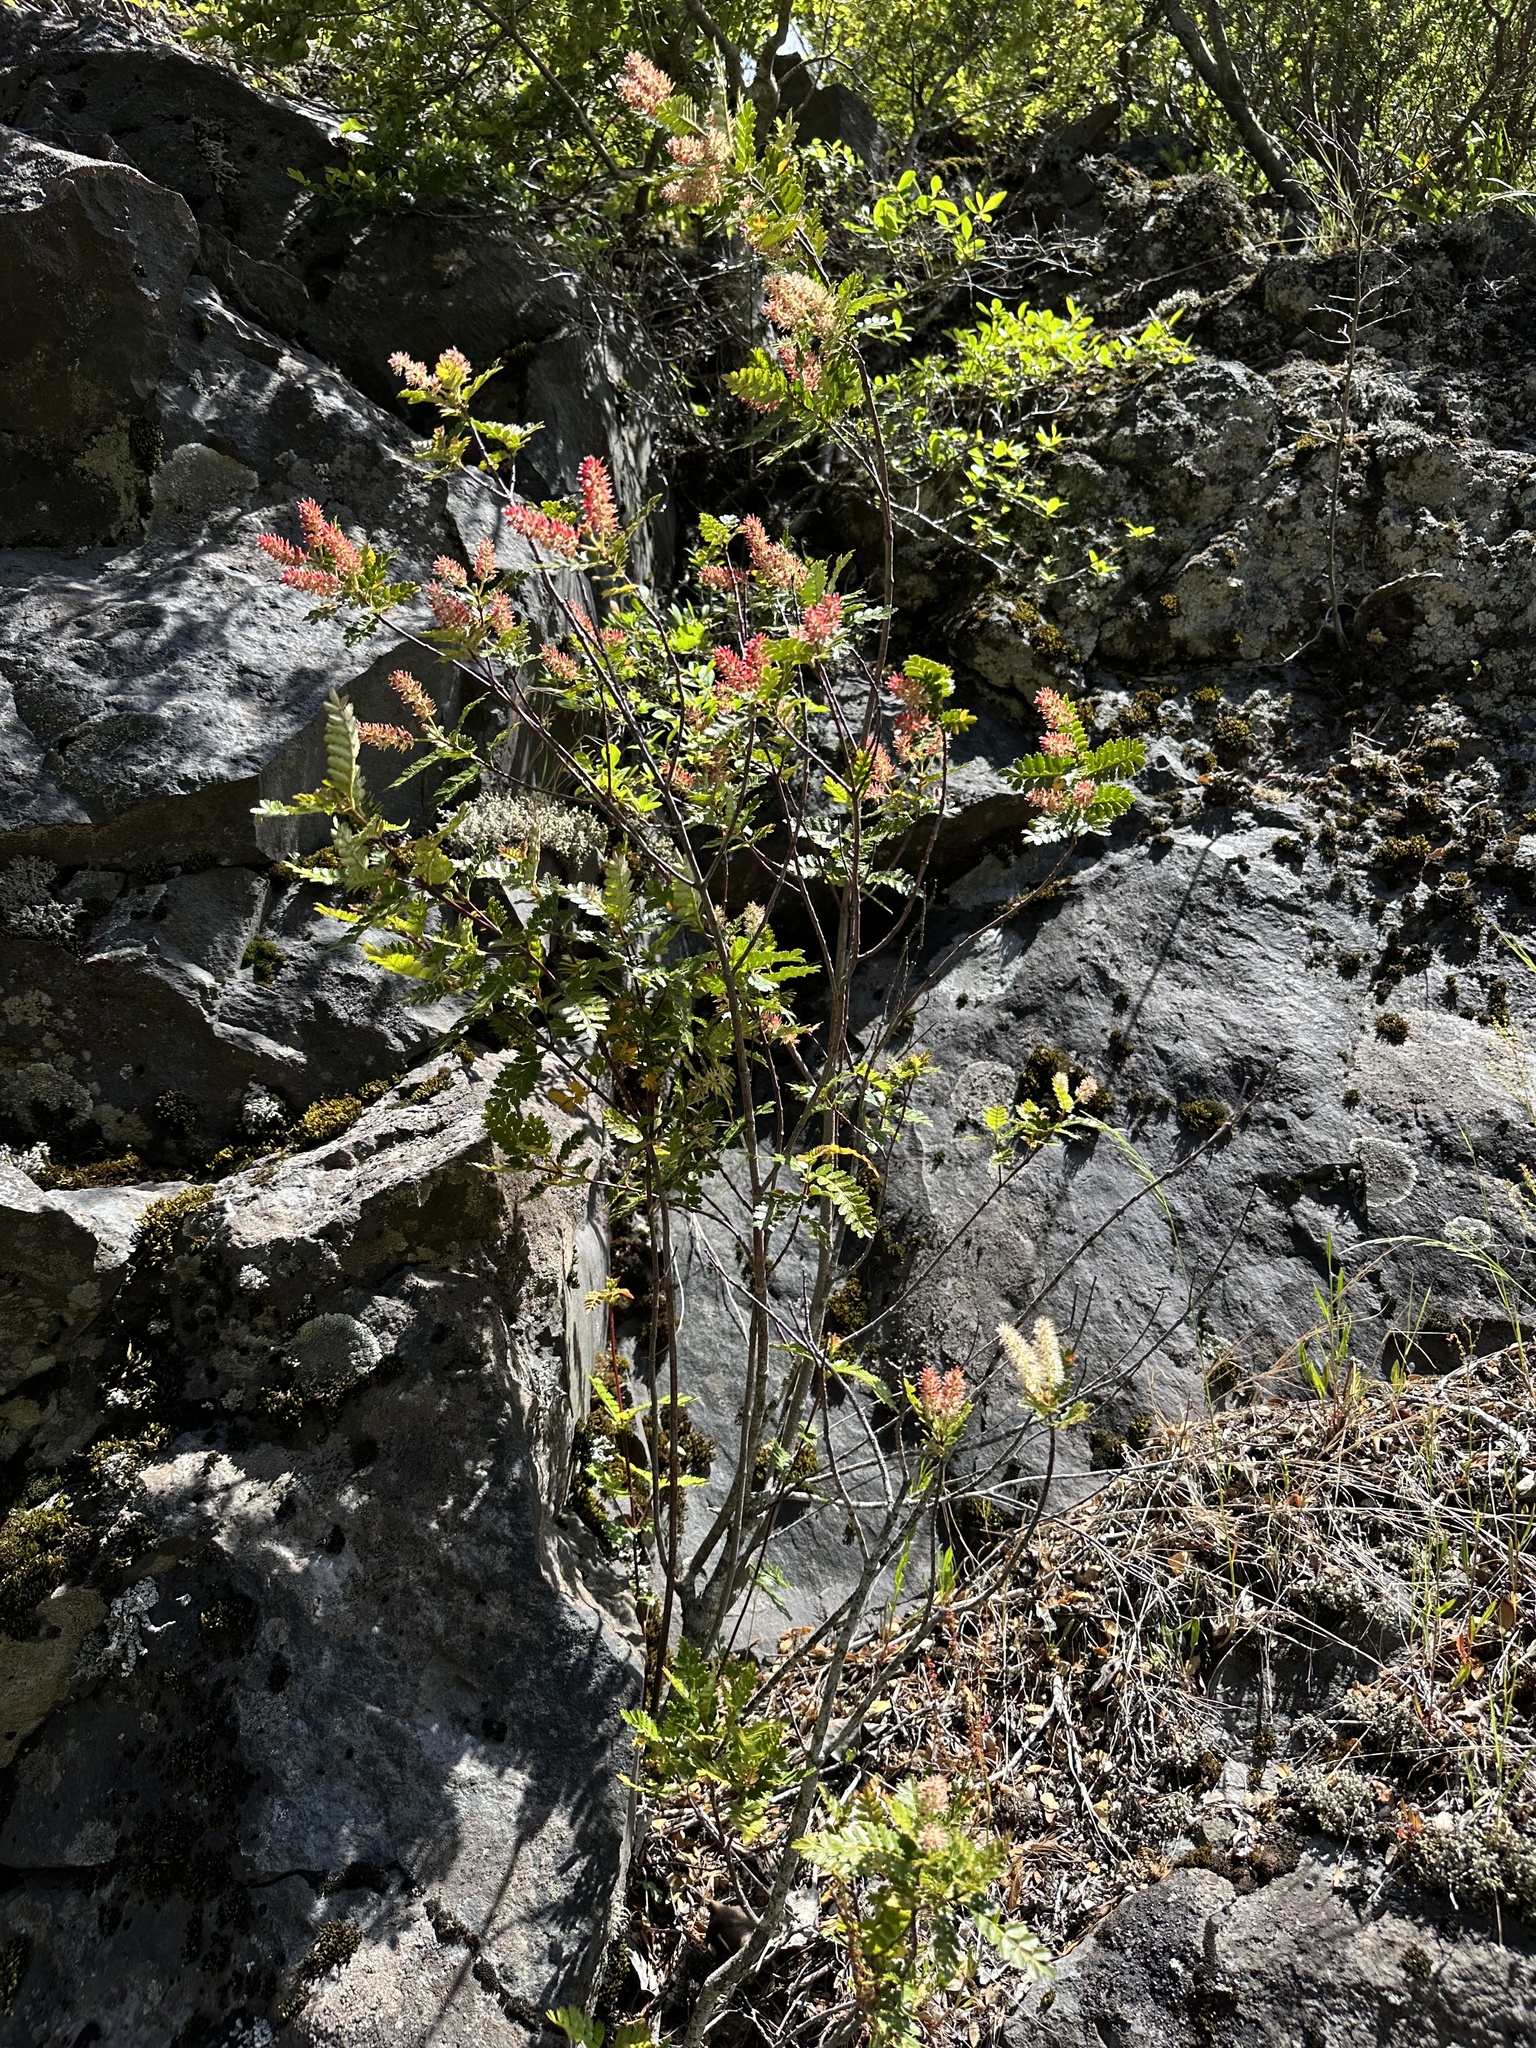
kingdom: Plantae
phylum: Tracheophyta
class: Magnoliopsida
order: Oxalidales
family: Cunoniaceae
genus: Weinmannia
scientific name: Weinmannia trichosperma
